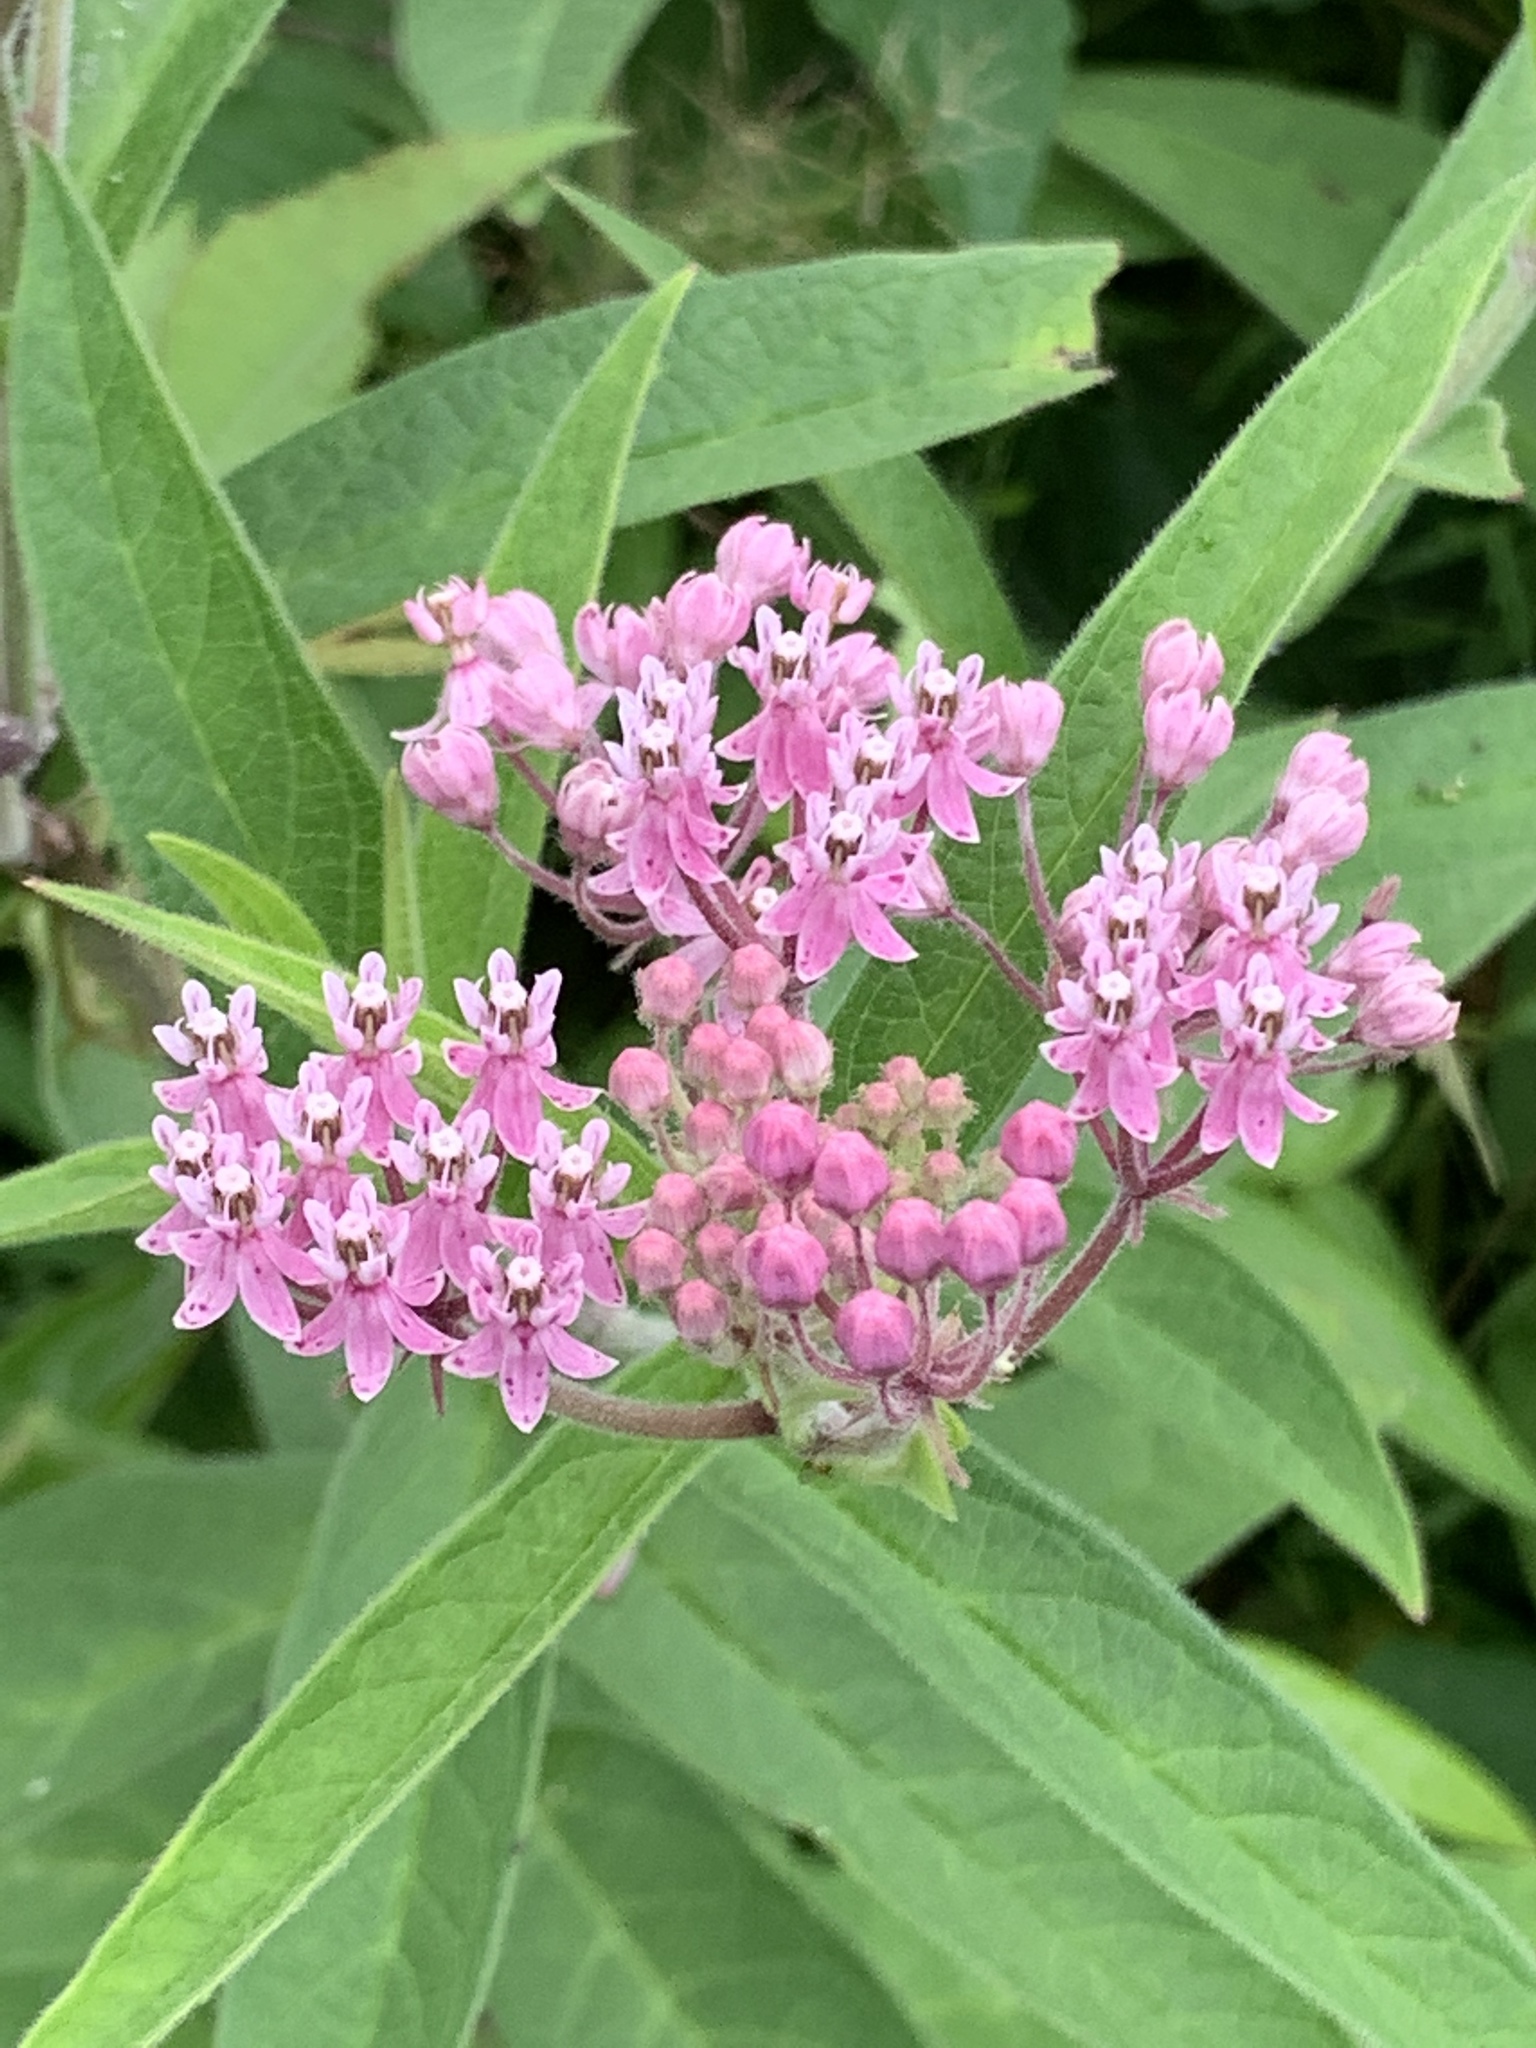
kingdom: Plantae
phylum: Tracheophyta
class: Magnoliopsida
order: Gentianales
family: Apocynaceae
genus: Asclepias
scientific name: Asclepias incarnata
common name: Swamp milkweed
